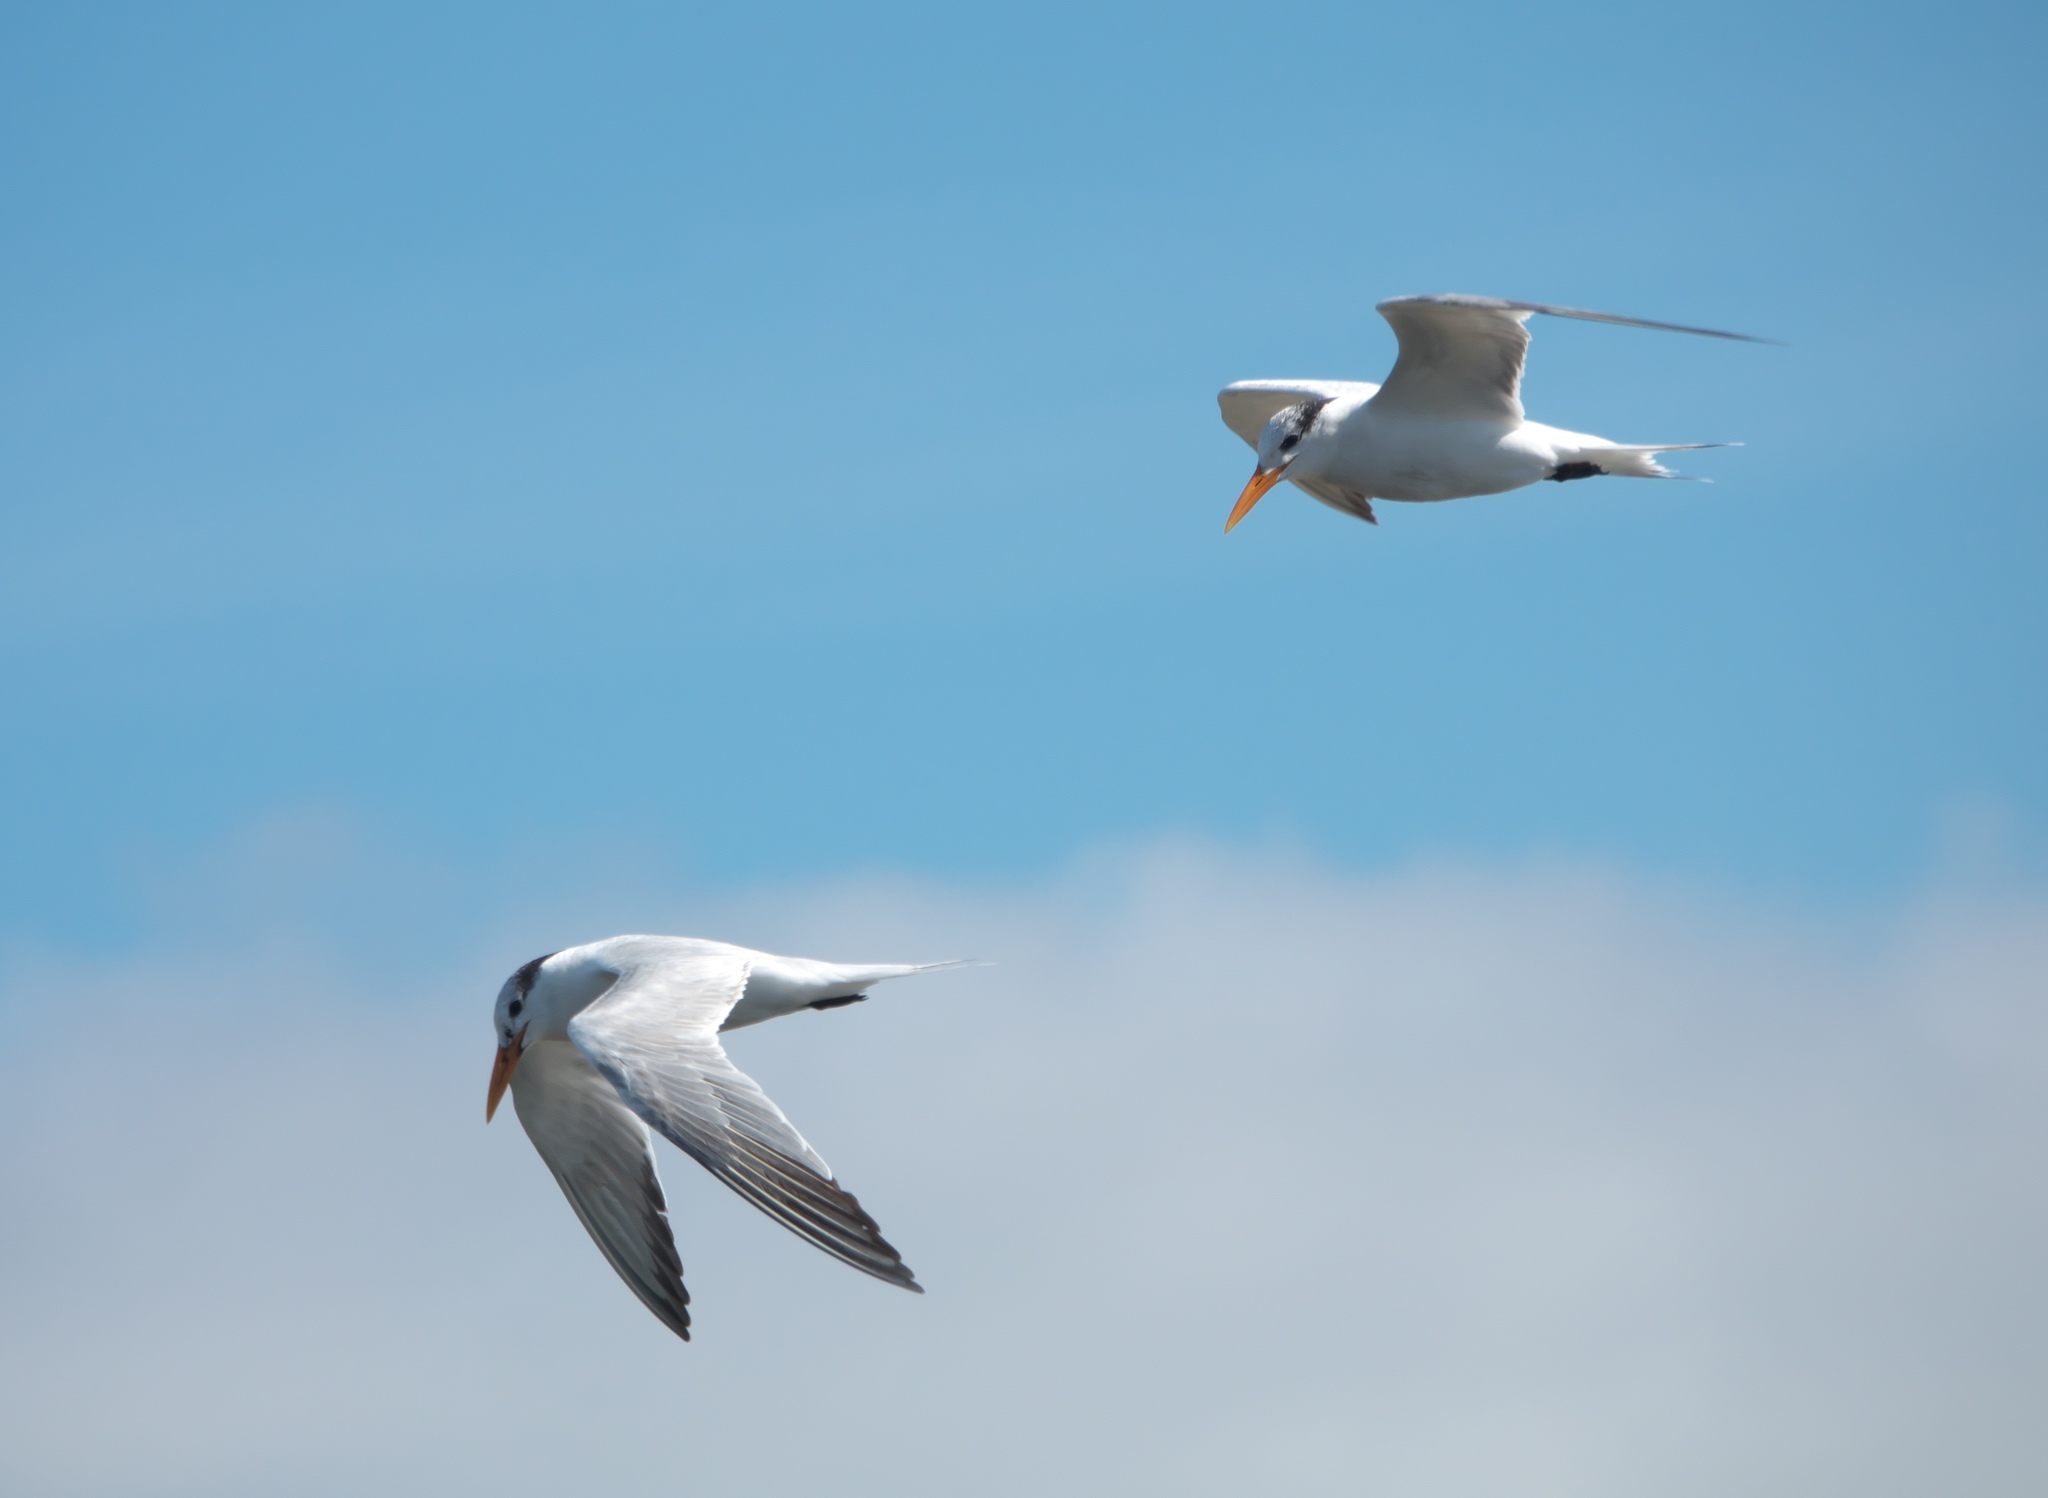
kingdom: Animalia
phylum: Chordata
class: Aves
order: Charadriiformes
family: Laridae
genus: Thalasseus
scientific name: Thalasseus maximus
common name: Royal tern
